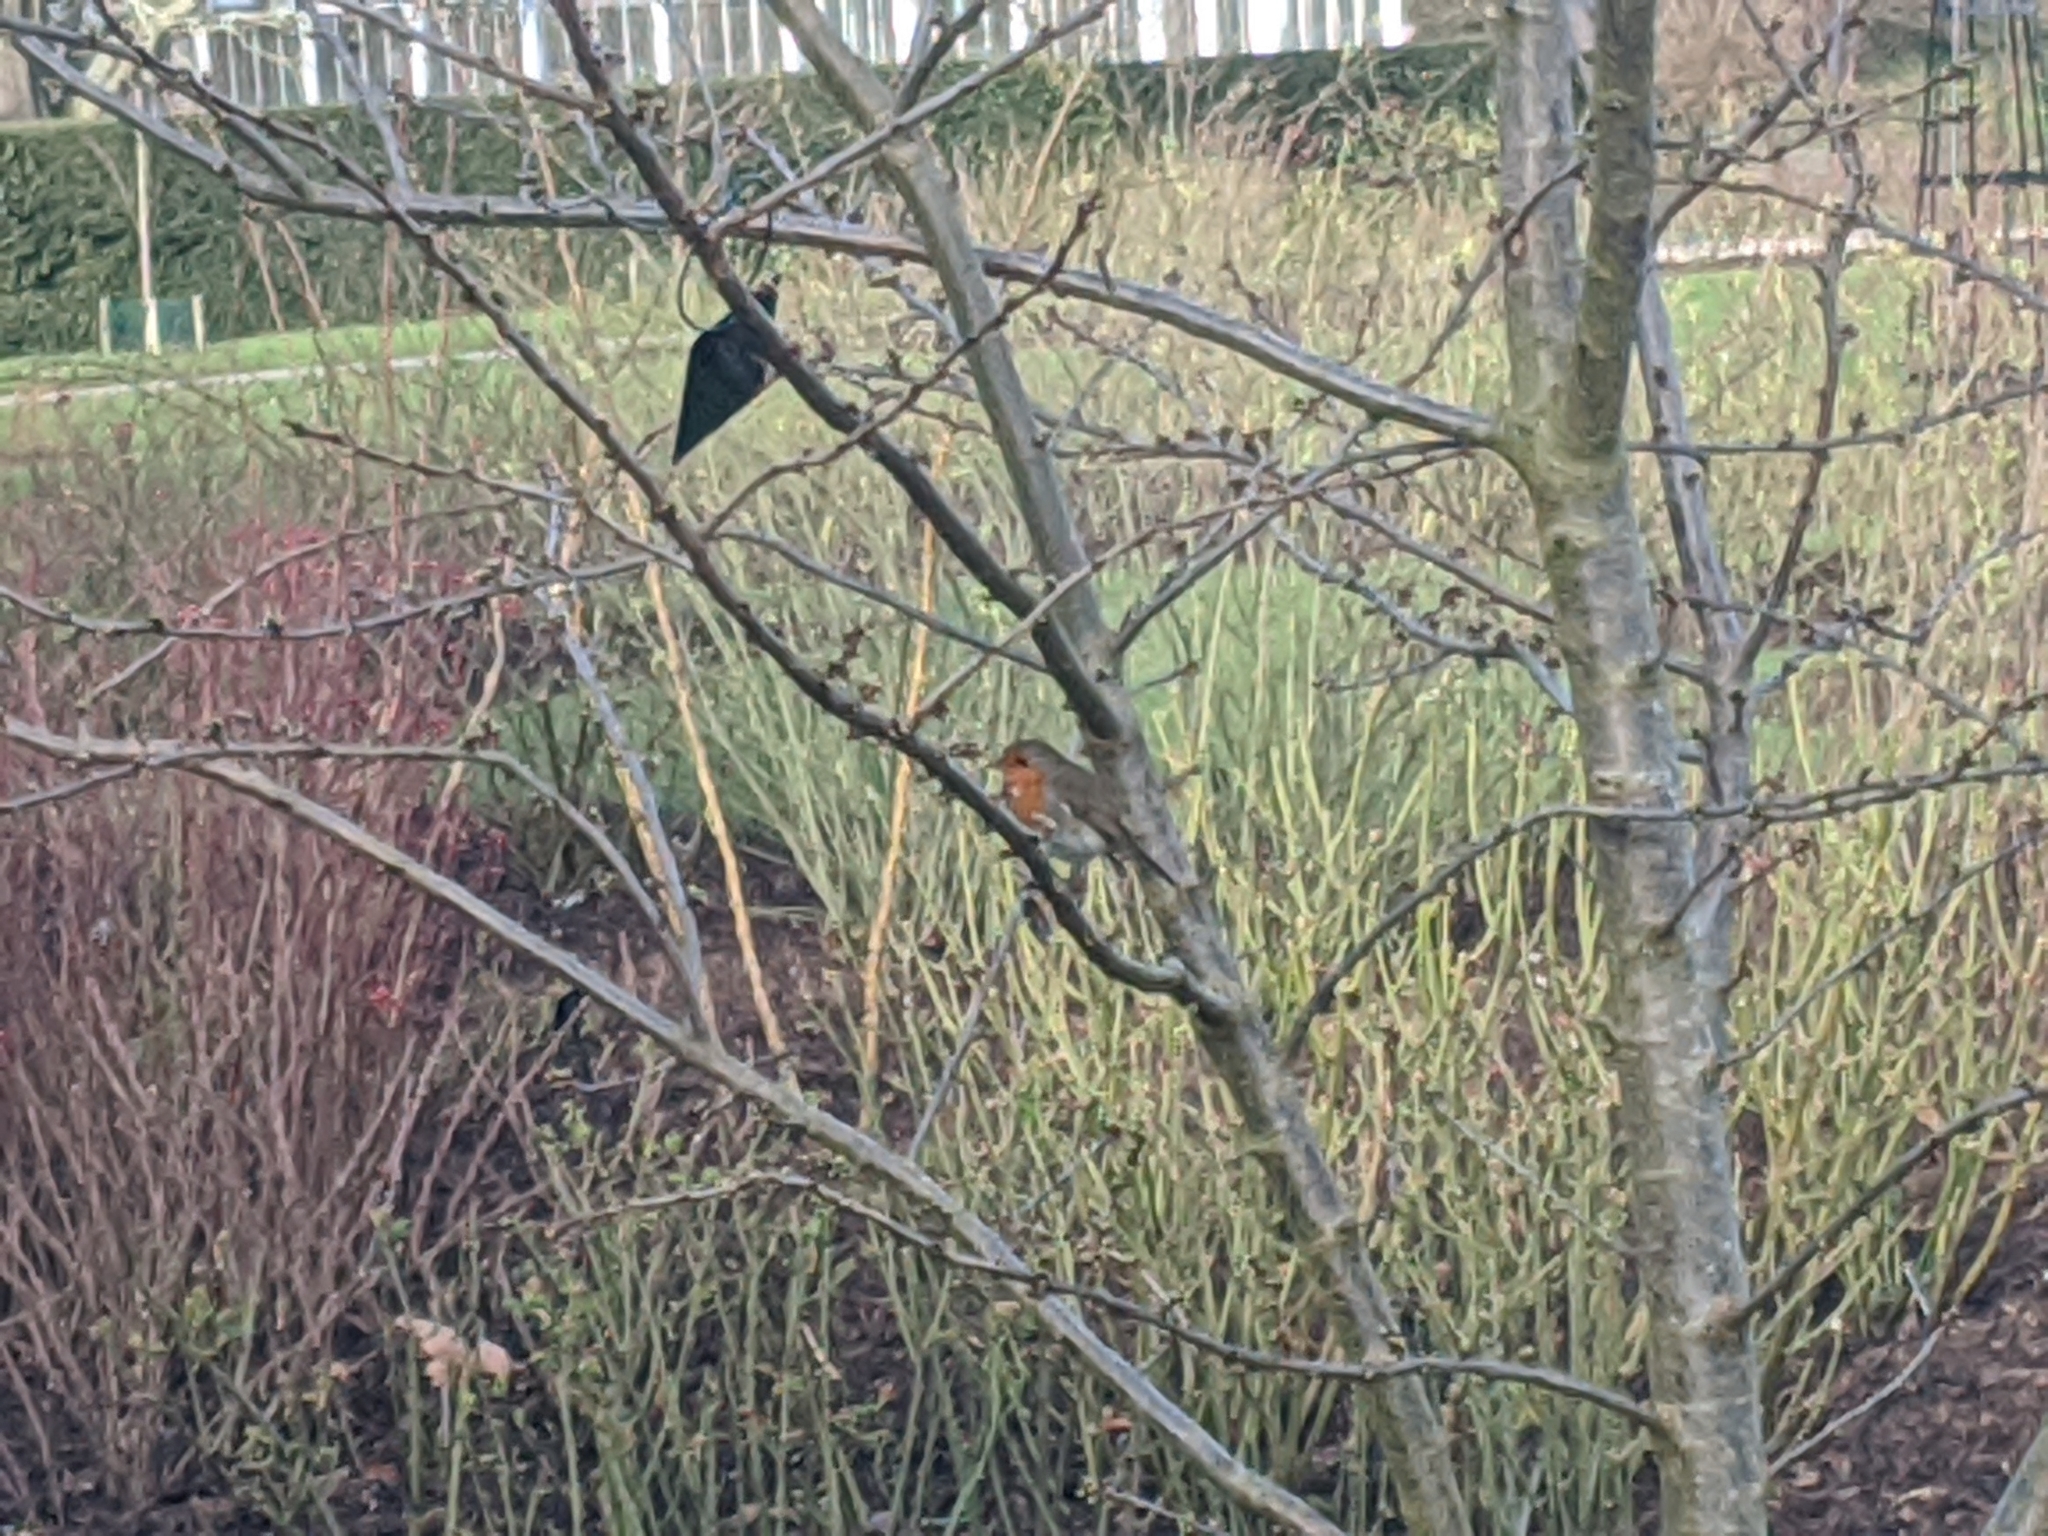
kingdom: Animalia
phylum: Chordata
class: Aves
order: Passeriformes
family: Muscicapidae
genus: Erithacus
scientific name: Erithacus rubecula
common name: European robin
